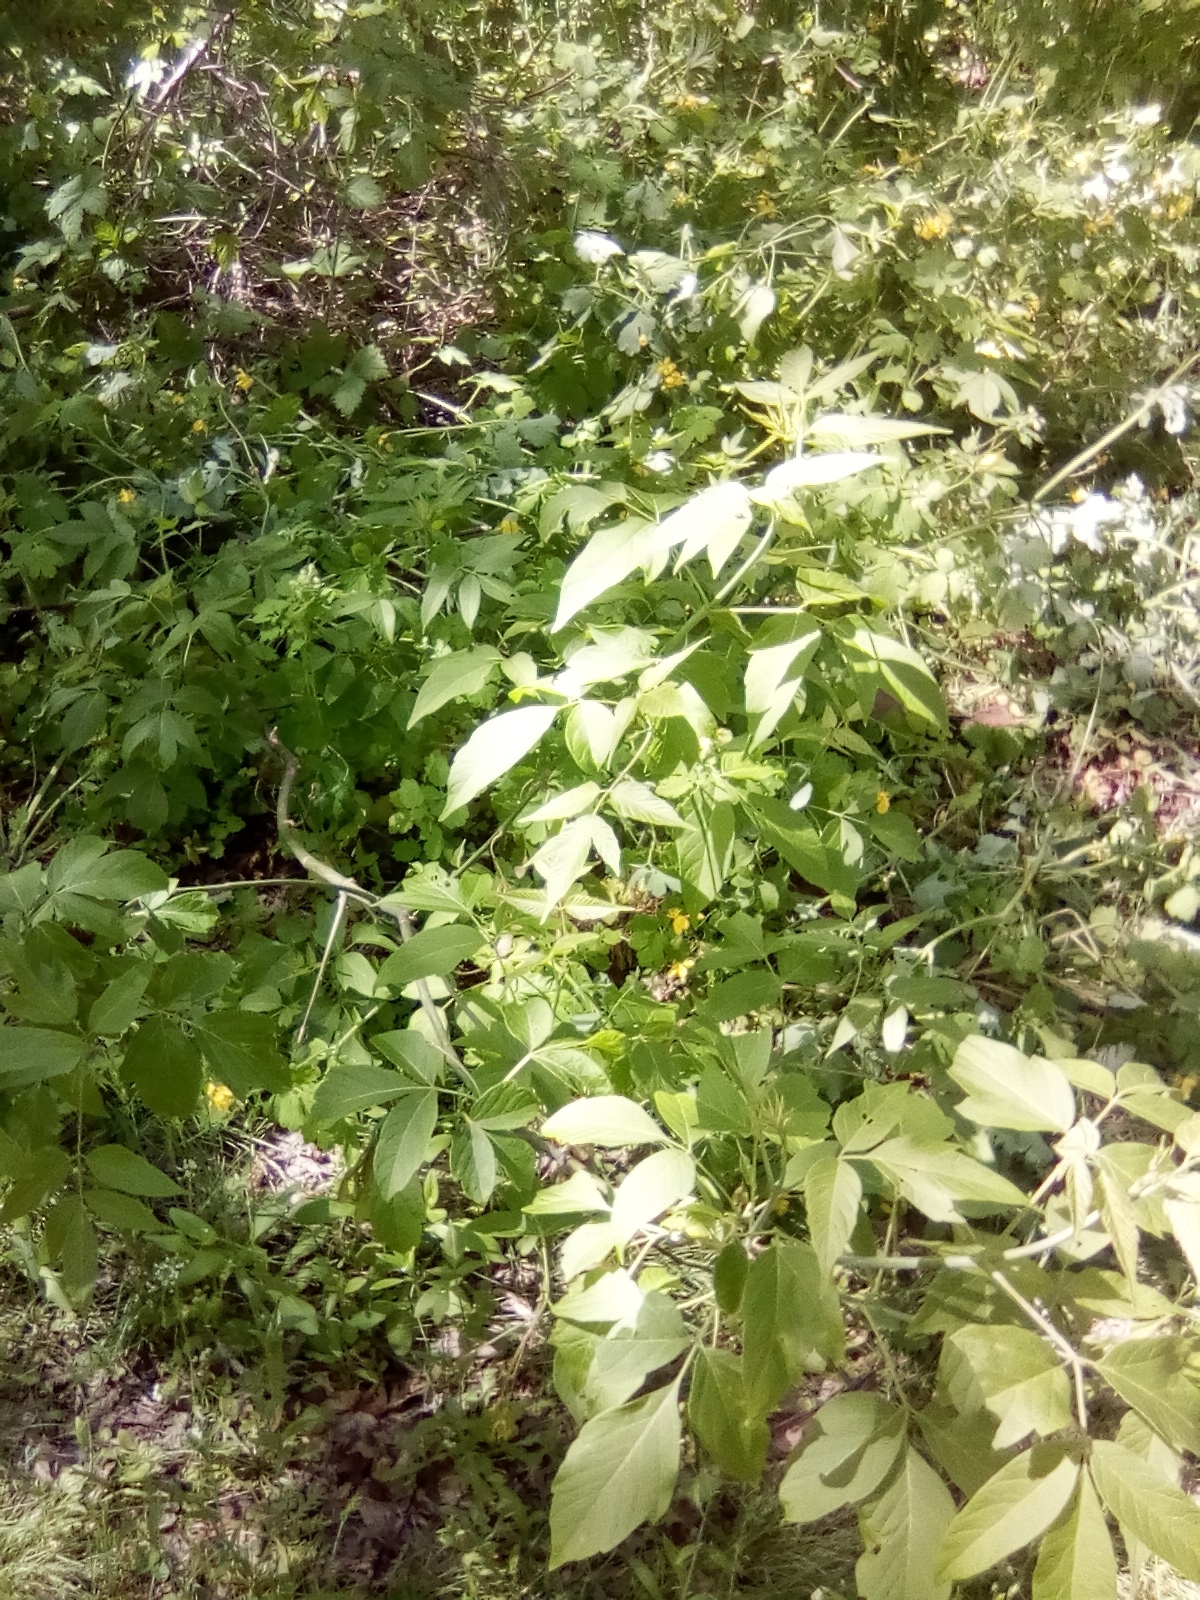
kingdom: Plantae
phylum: Tracheophyta
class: Magnoliopsida
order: Sapindales
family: Sapindaceae
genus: Acer
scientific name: Acer negundo
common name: Ashleaf maple
